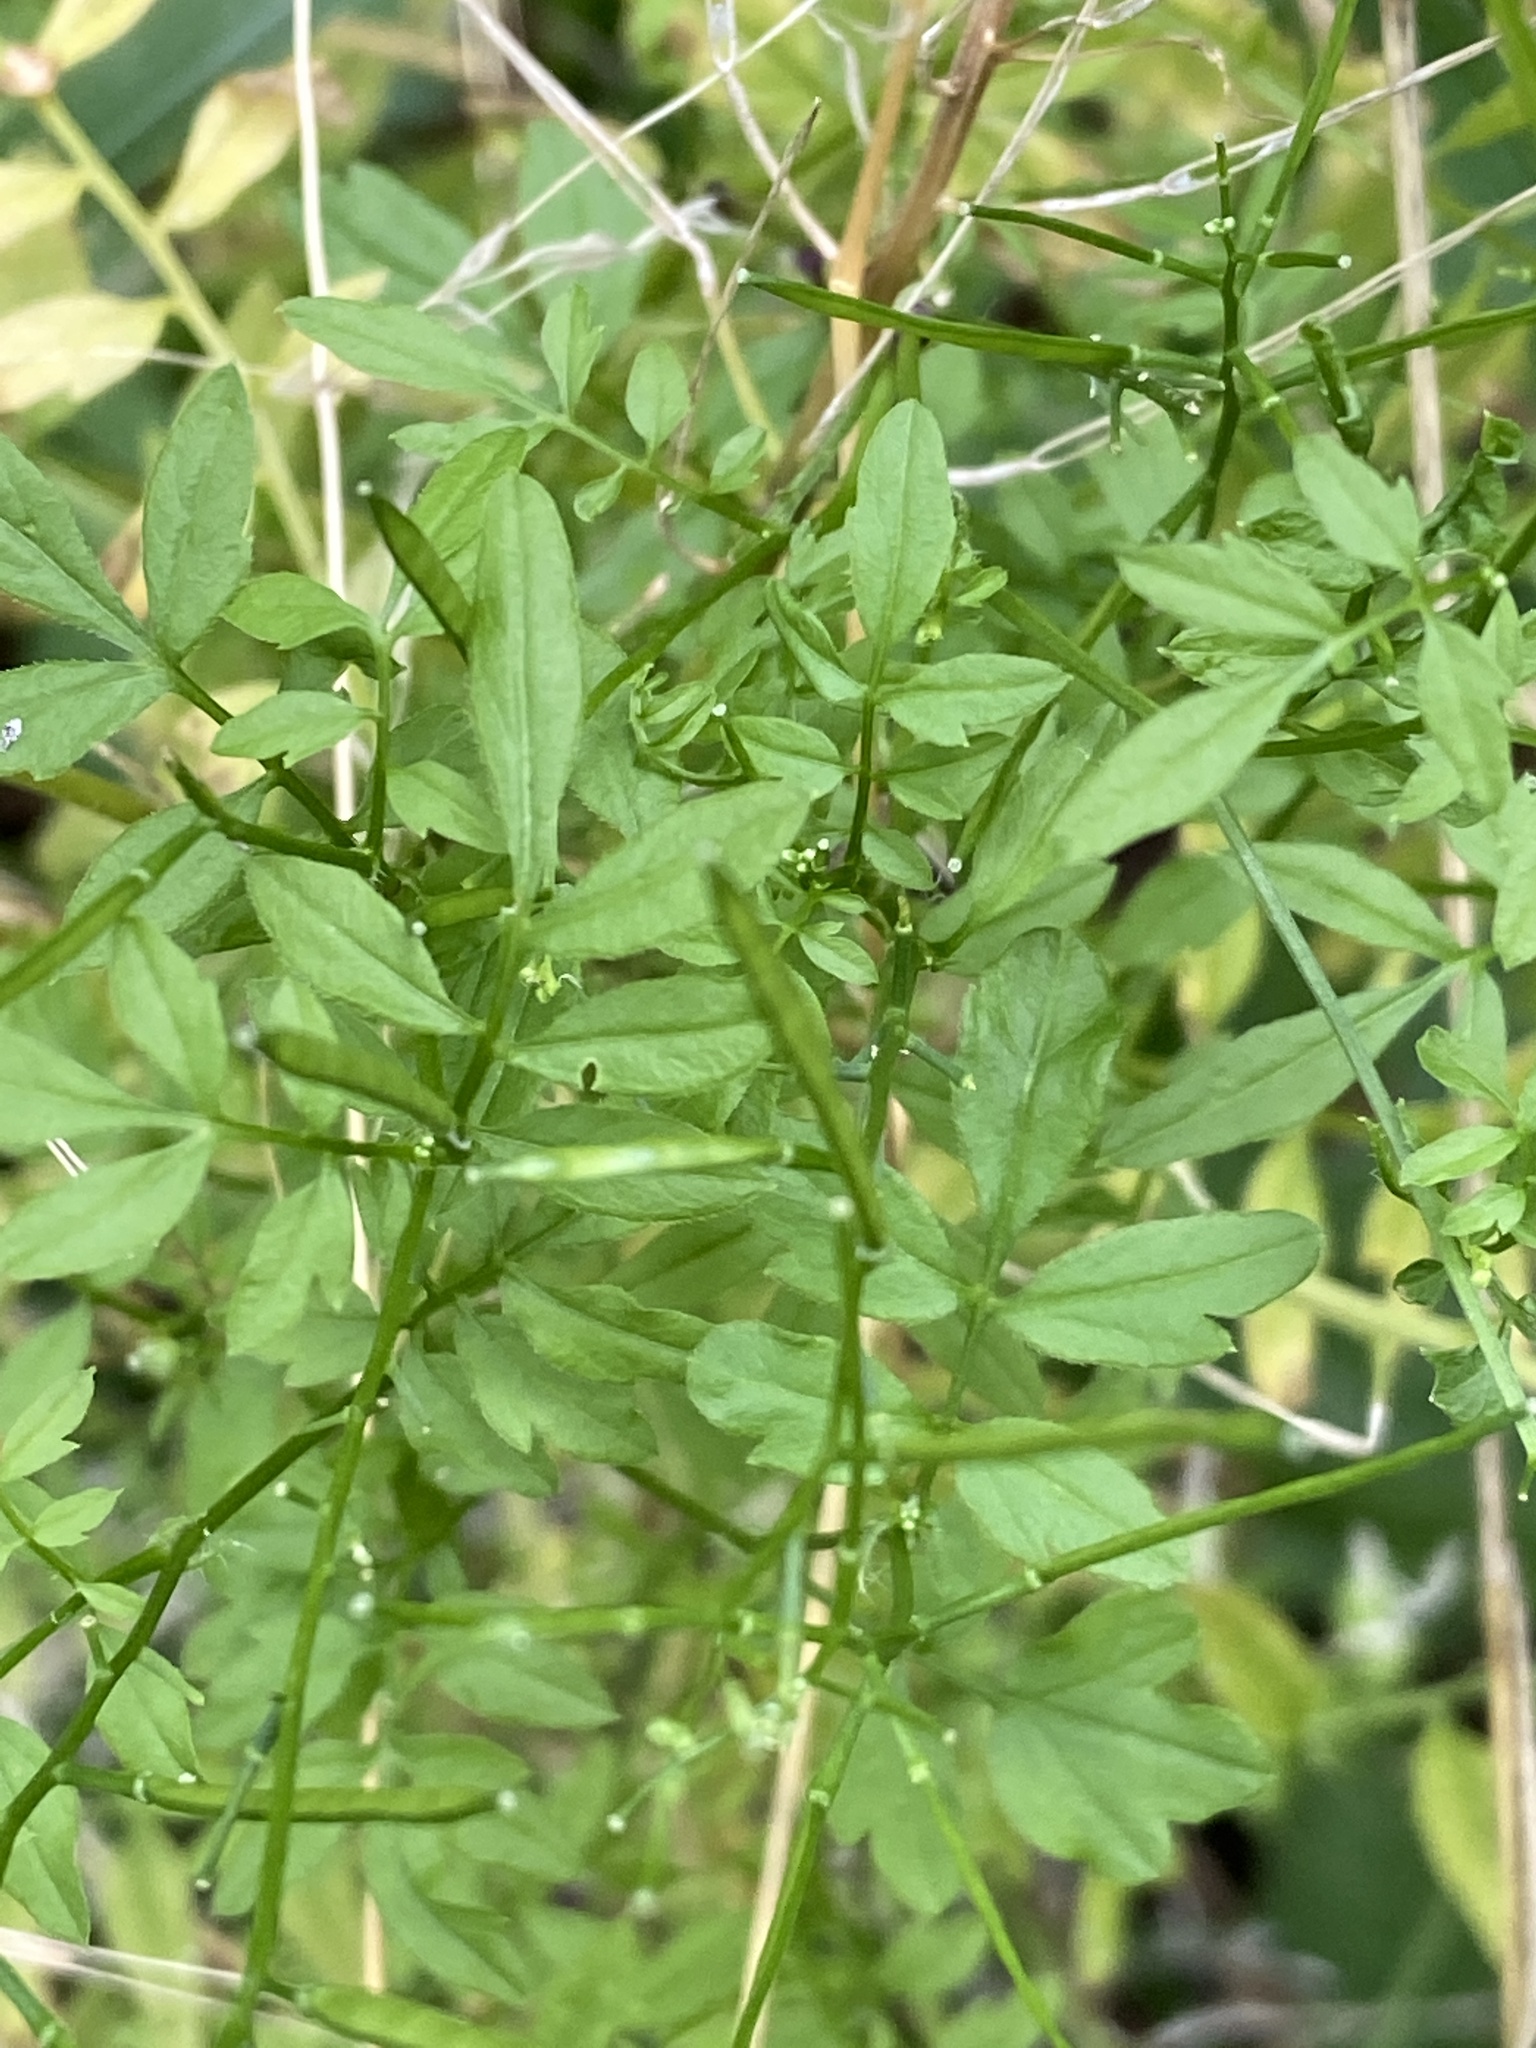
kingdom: Plantae
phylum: Tracheophyta
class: Magnoliopsida
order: Brassicales
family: Brassicaceae
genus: Cardamine
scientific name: Cardamine impatiens
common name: Narrow-leaved bitter-cress
